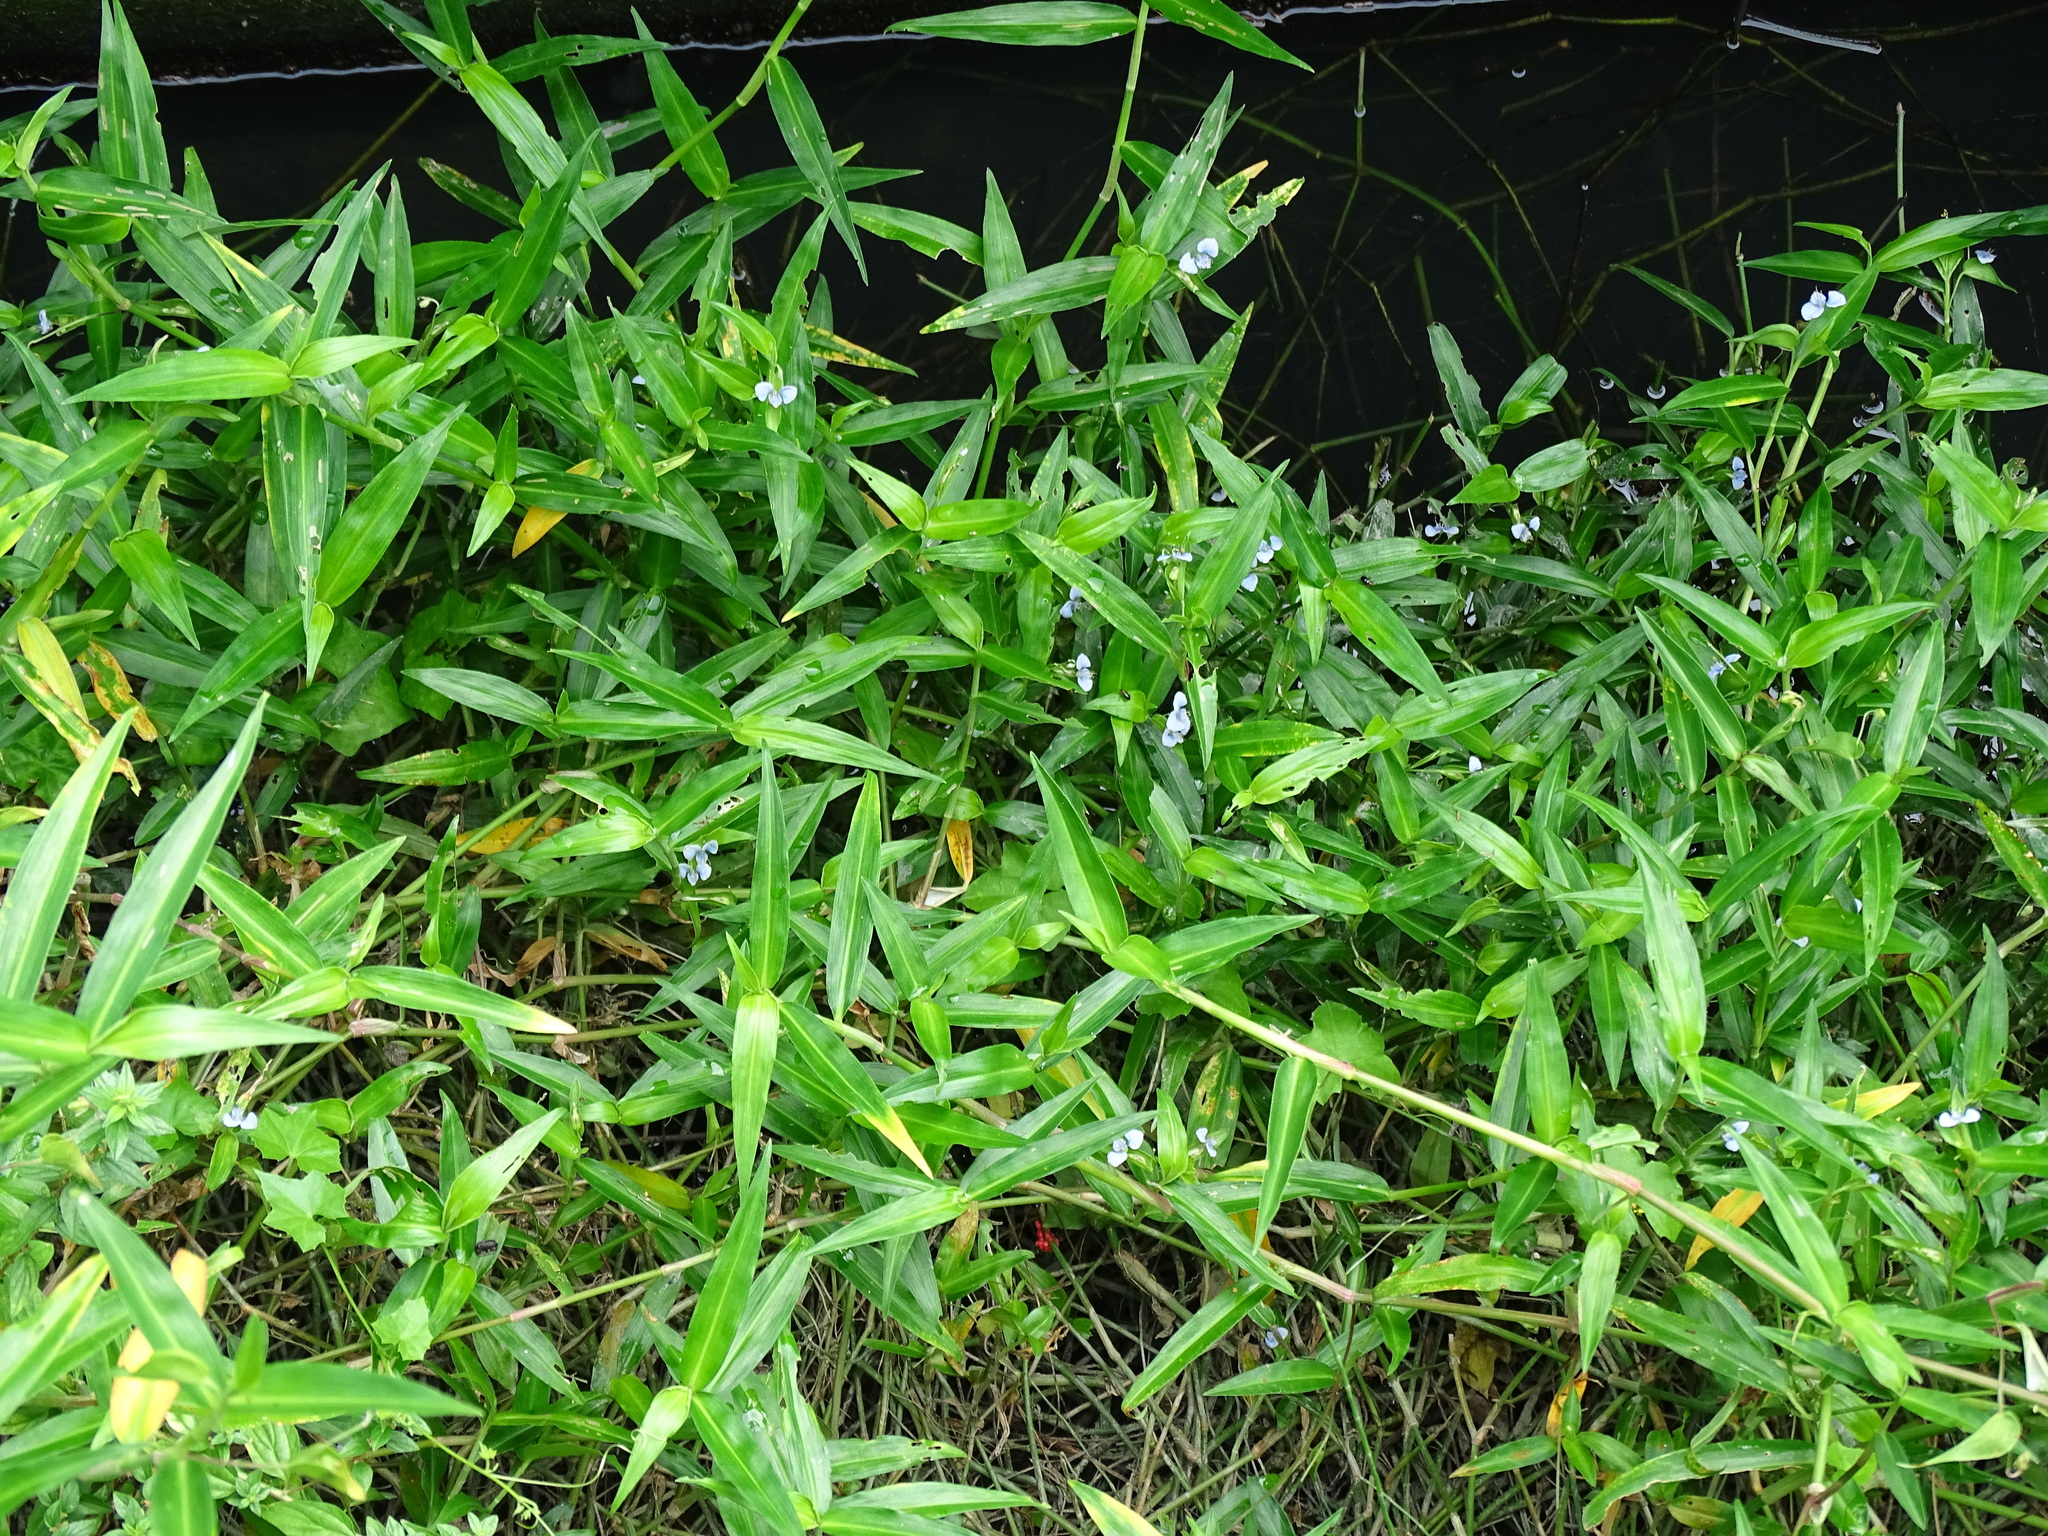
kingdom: Plantae
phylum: Tracheophyta
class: Liliopsida
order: Commelinales
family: Commelinaceae
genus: Commelina
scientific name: Commelina diffusa
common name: Climbing dayflower
